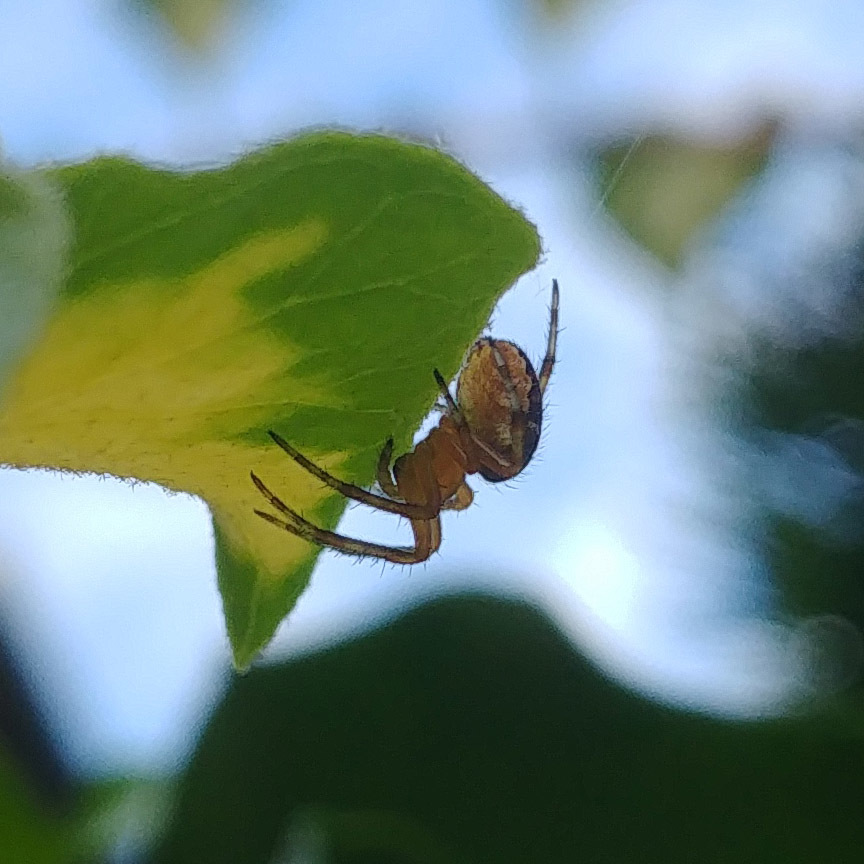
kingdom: Animalia
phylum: Arthropoda
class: Arachnida
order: Araneae
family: Araneidae
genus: Araneus
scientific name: Araneus diadematus
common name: Cross orbweaver
